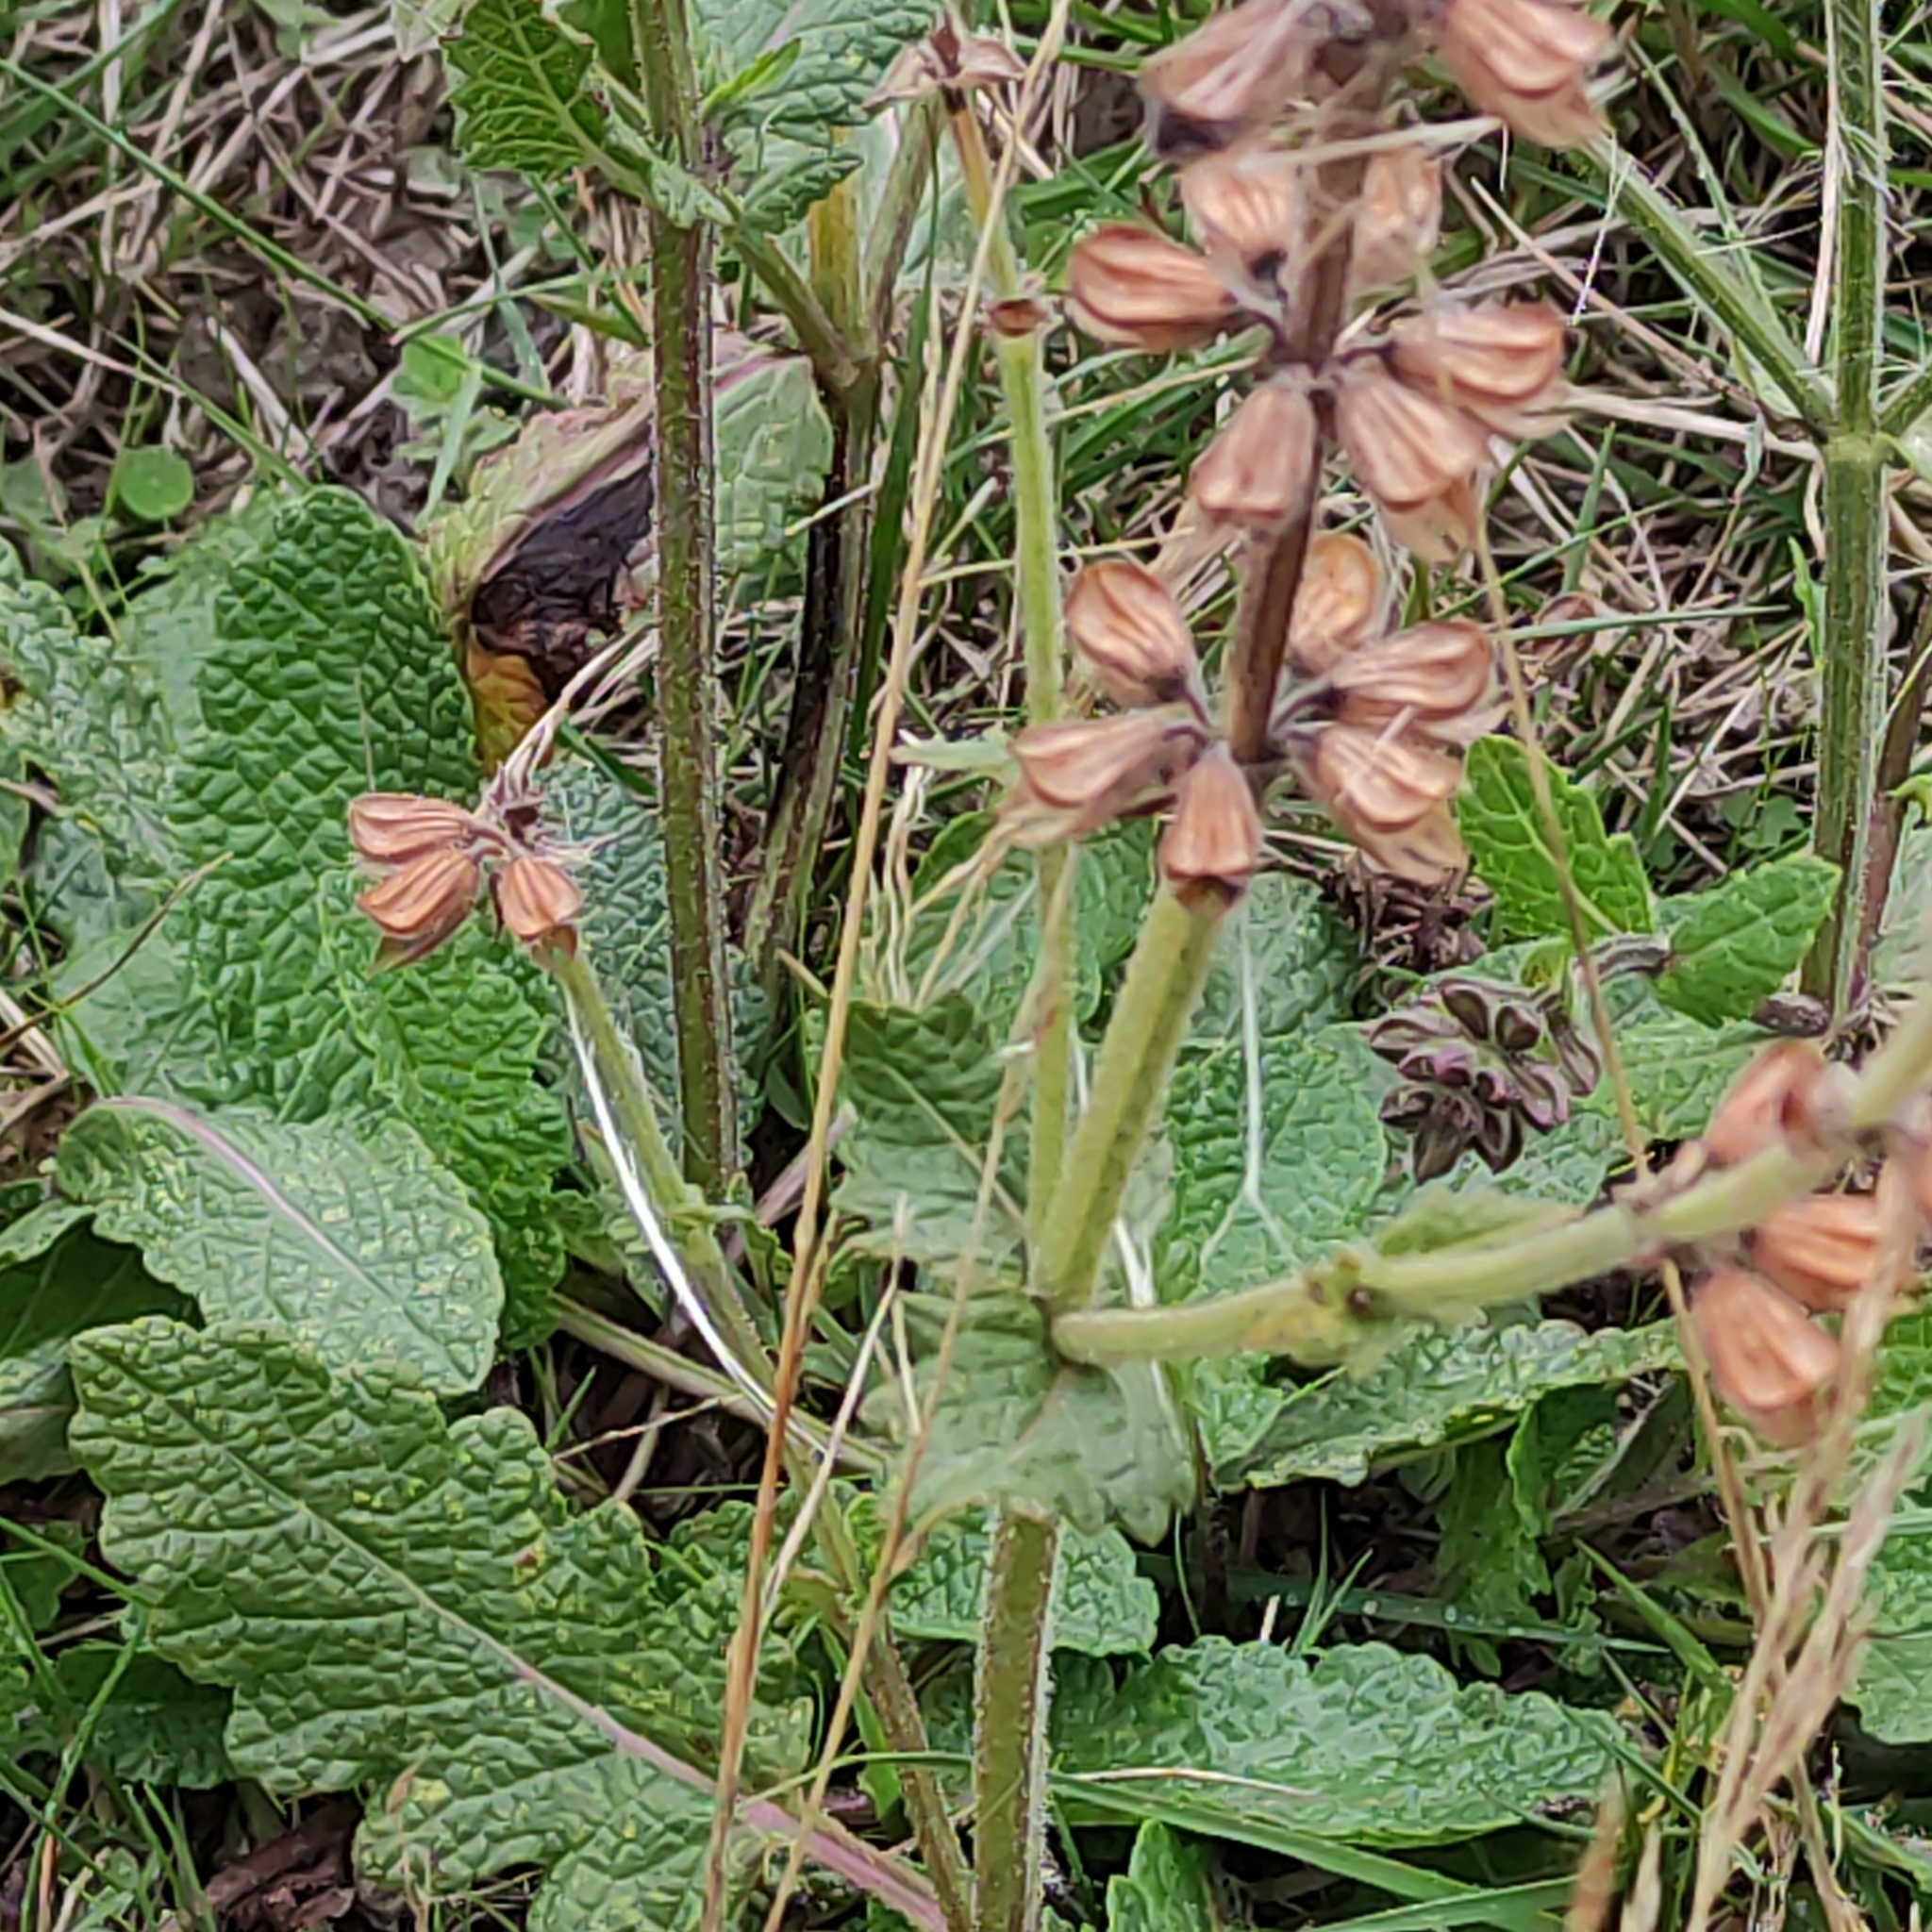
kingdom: Plantae
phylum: Tracheophyta
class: Magnoliopsida
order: Lamiales
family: Lamiaceae
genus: Salvia
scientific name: Salvia verbenaca
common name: Wild clary
